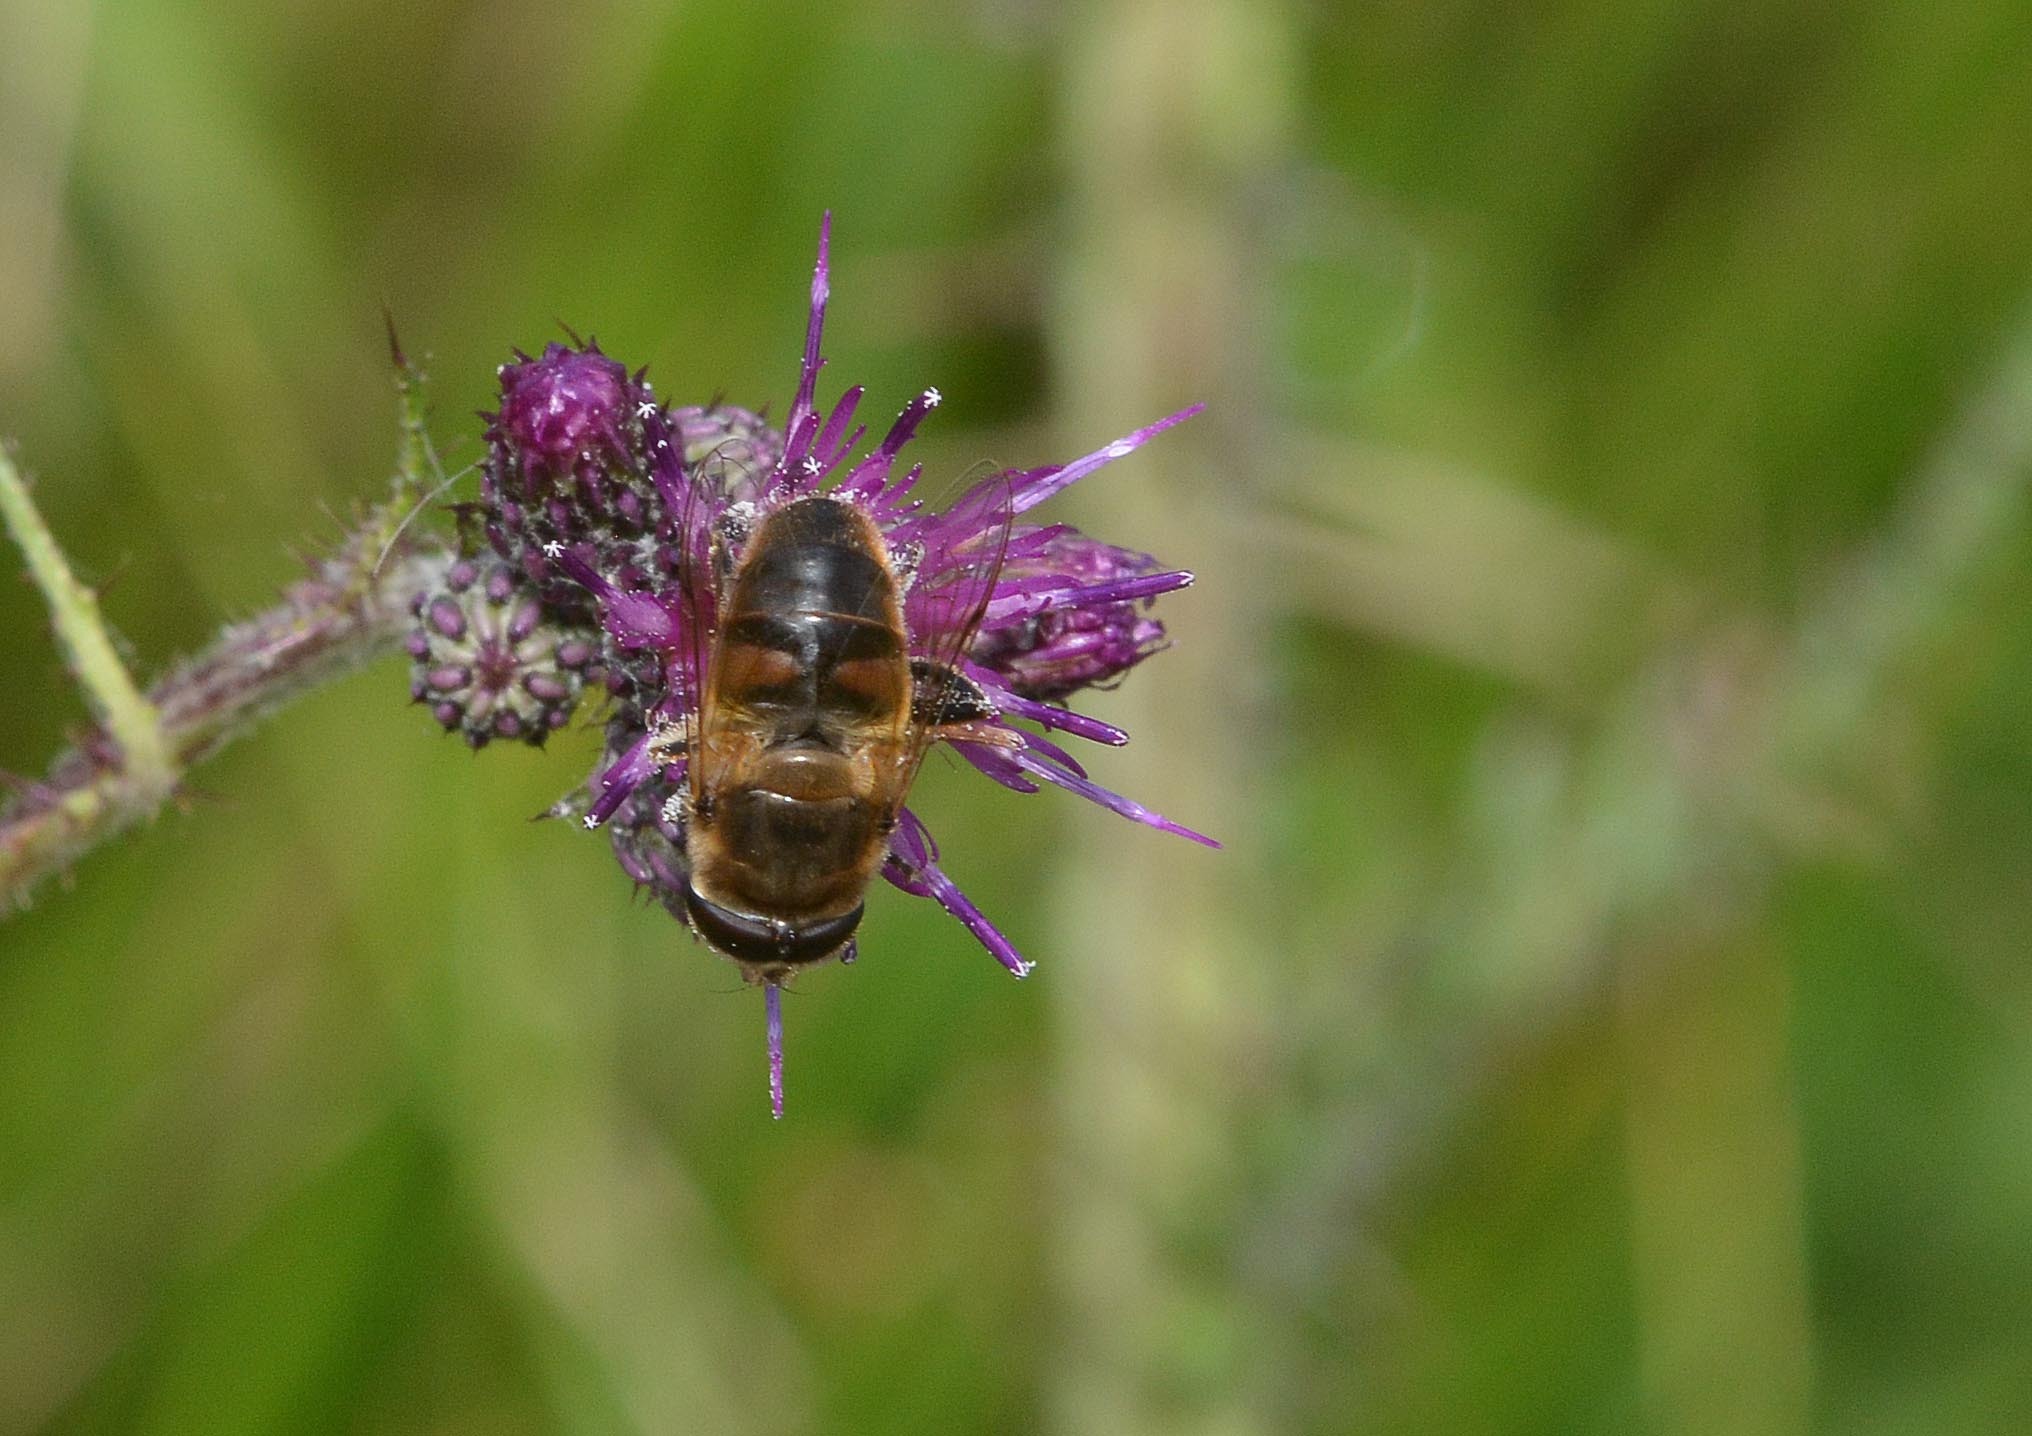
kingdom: Animalia
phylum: Arthropoda
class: Insecta
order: Diptera
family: Syrphidae
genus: Eristalis
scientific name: Eristalis tenax
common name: Drone fly
